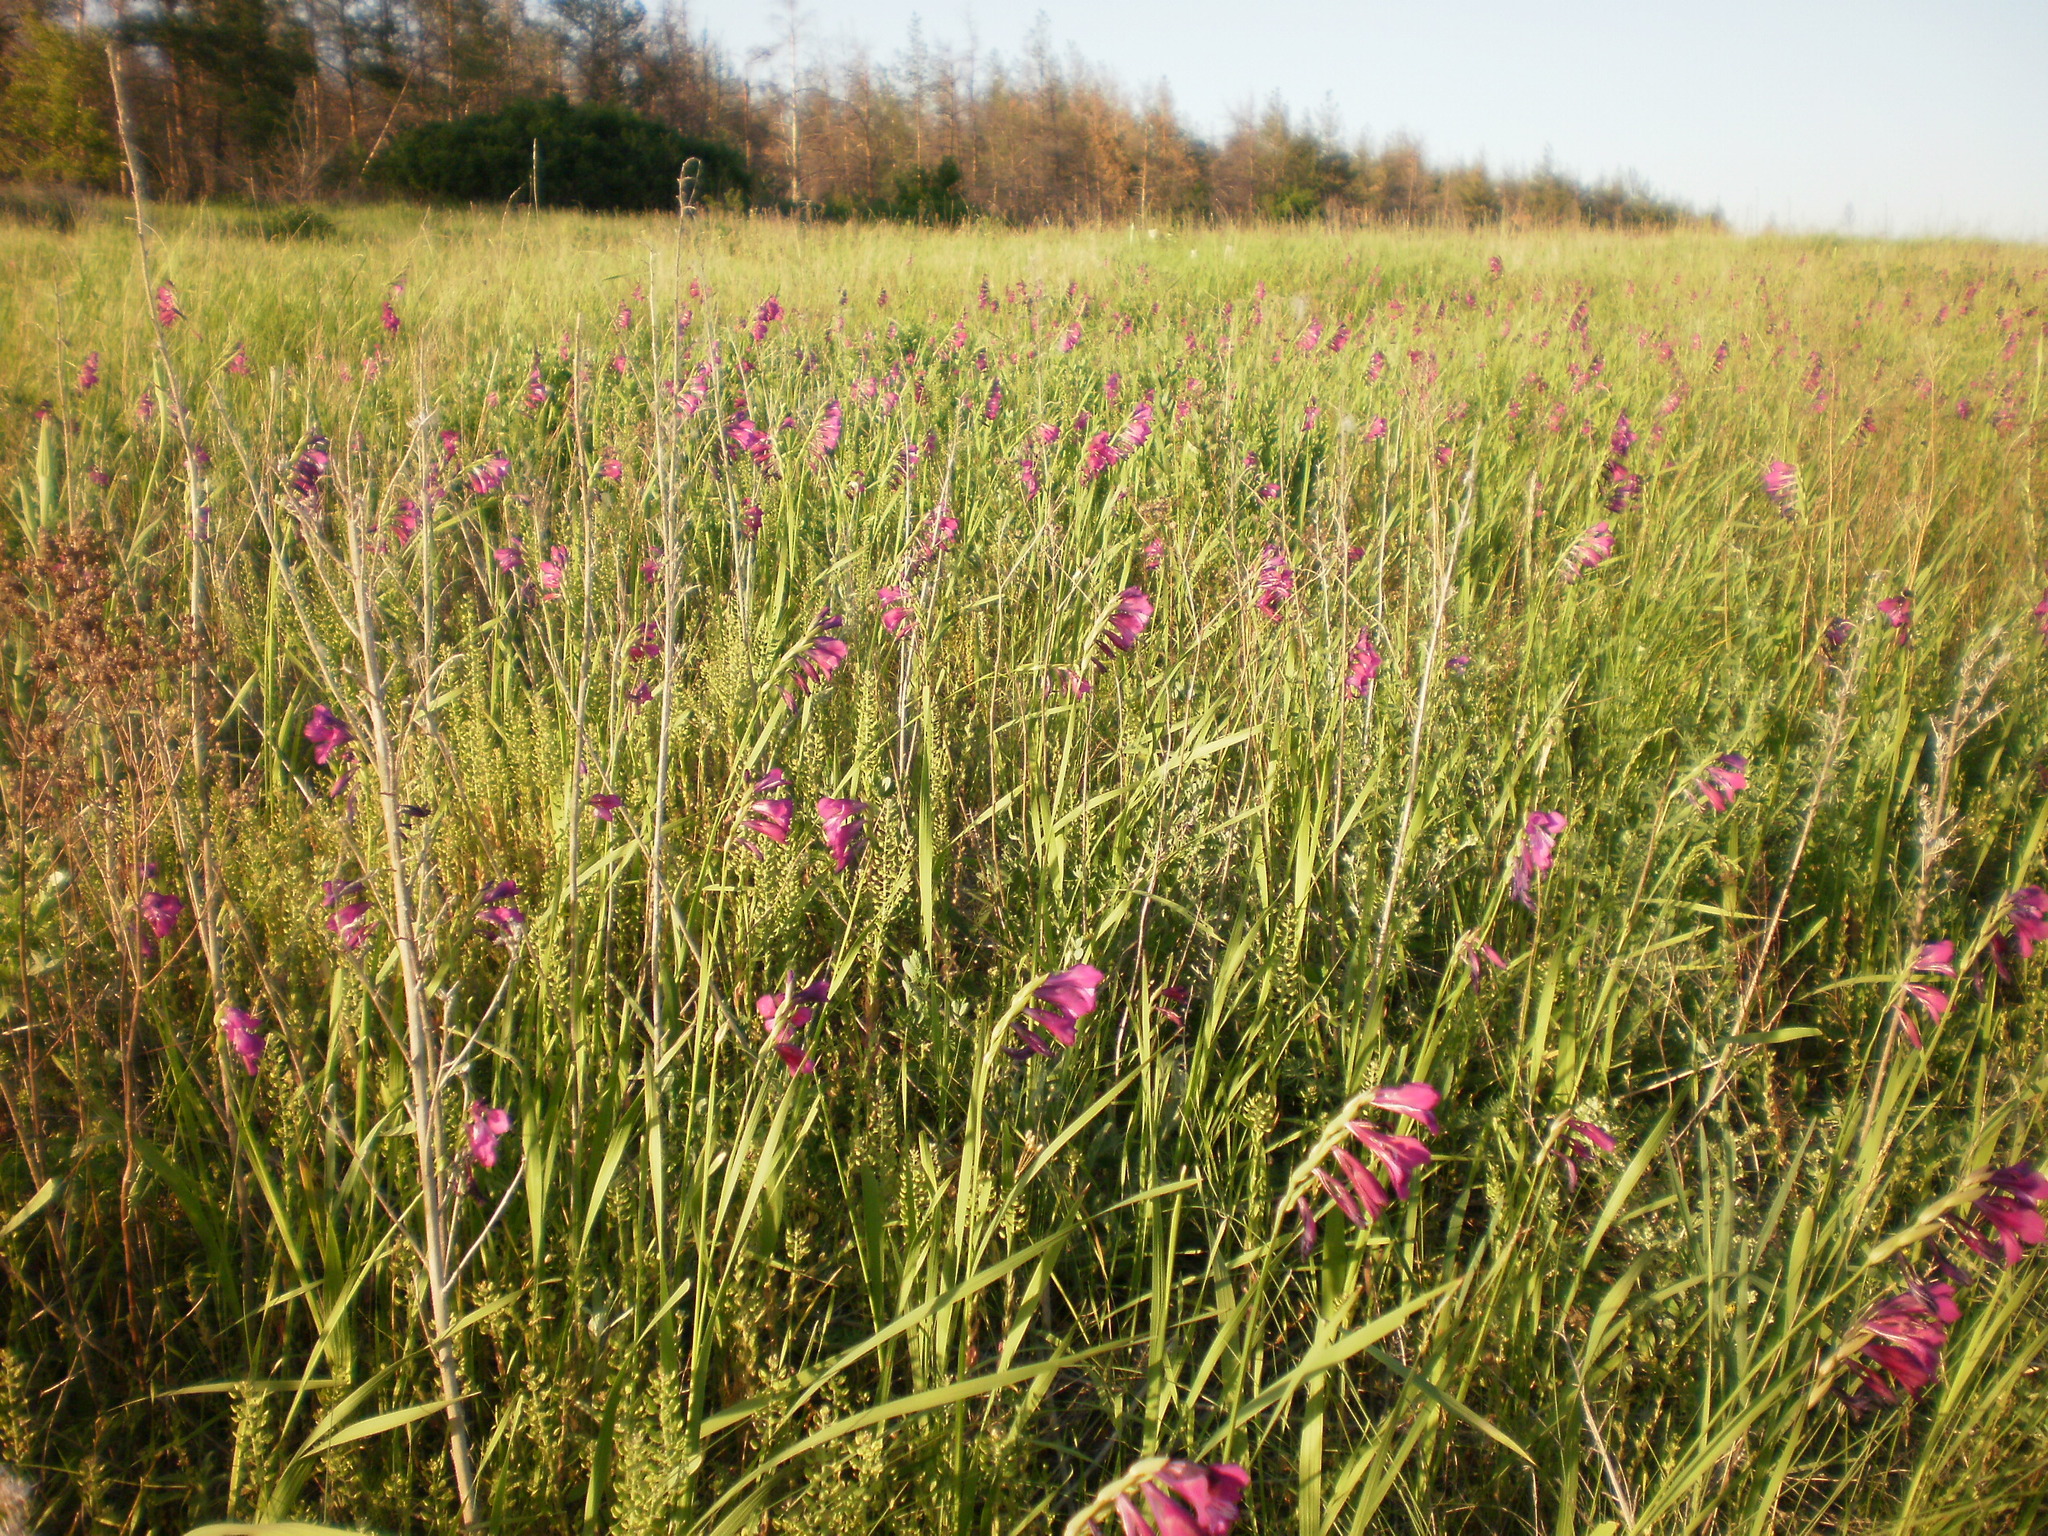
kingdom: Plantae
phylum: Tracheophyta
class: Liliopsida
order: Asparagales
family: Iridaceae
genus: Gladiolus
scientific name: Gladiolus tenuis
